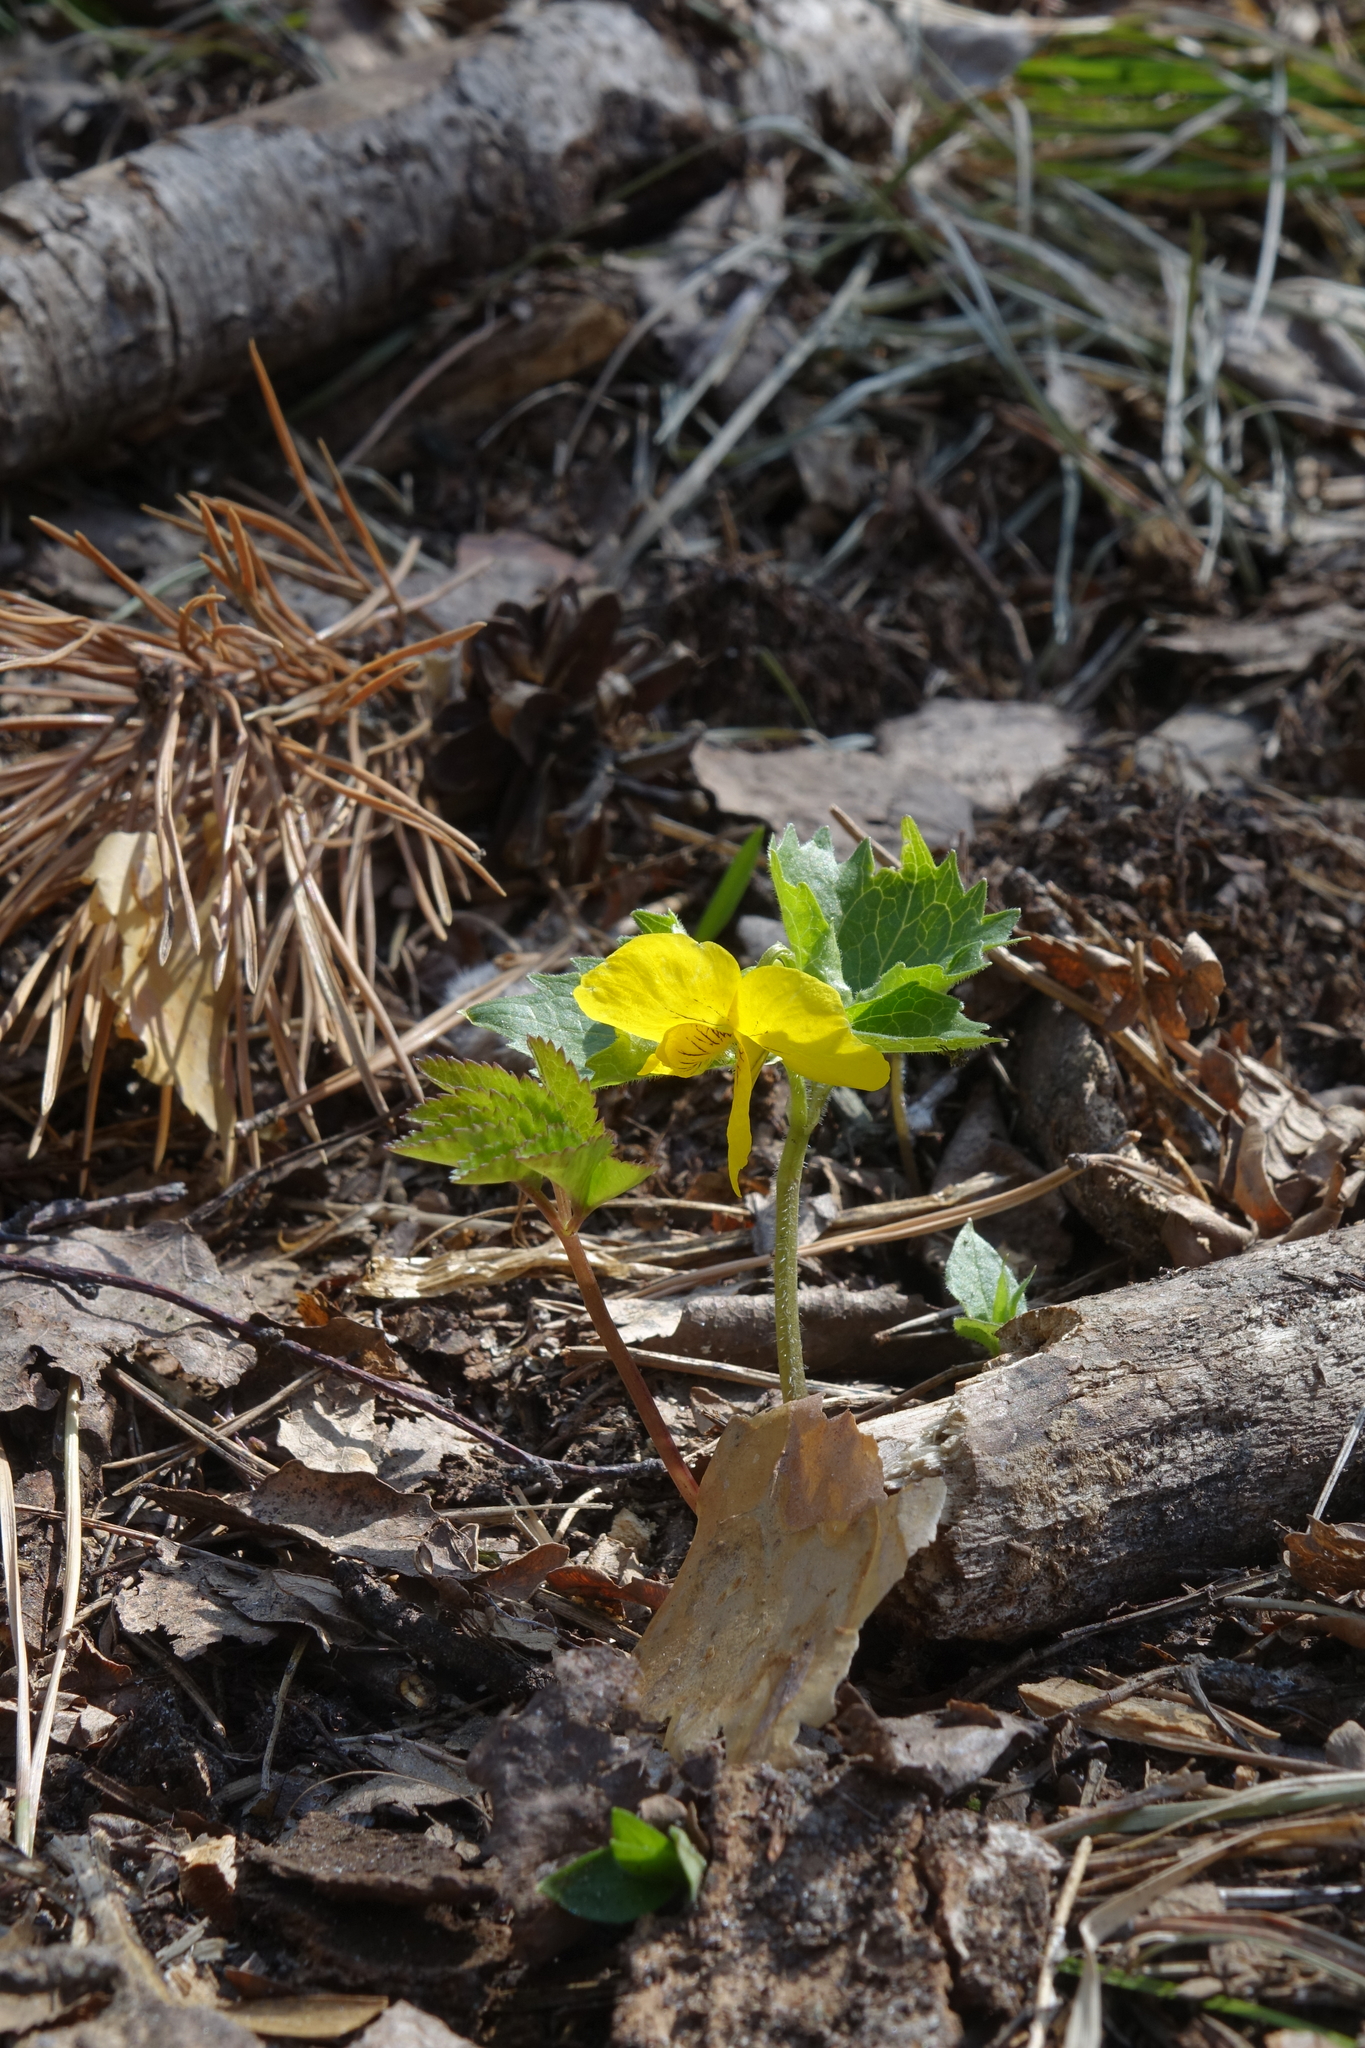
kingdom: Plantae
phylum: Tracheophyta
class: Magnoliopsida
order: Malpighiales
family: Violaceae
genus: Viola
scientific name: Viola uniflora
